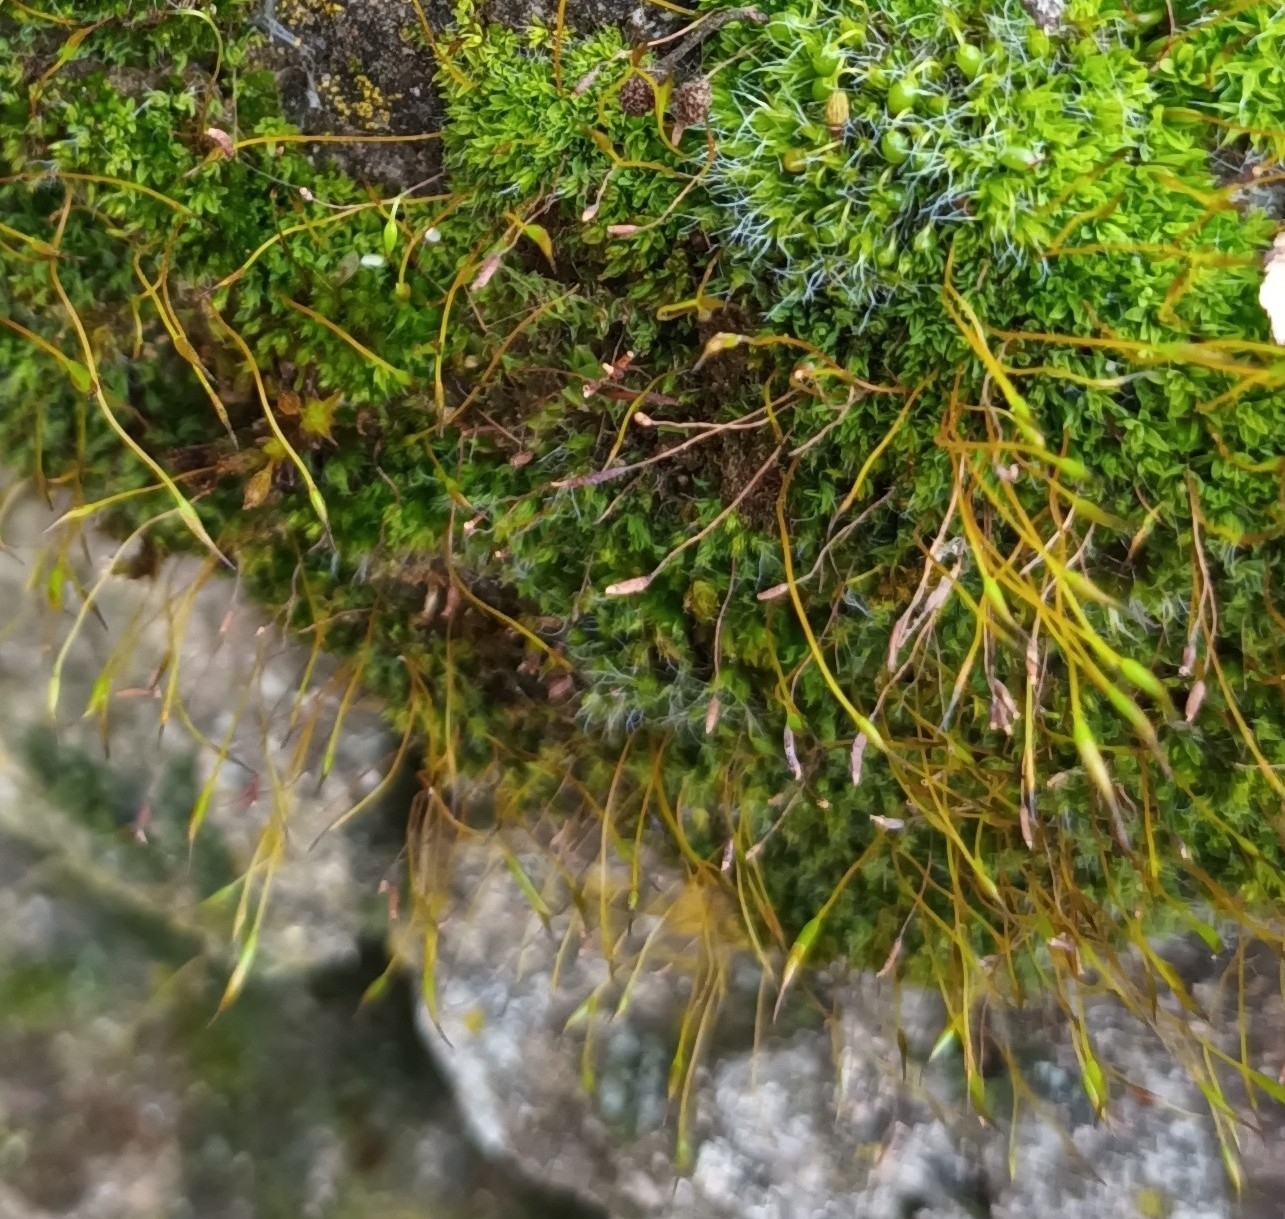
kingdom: Plantae
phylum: Bryophyta
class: Bryopsida
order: Pottiales
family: Pottiaceae
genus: Tortula
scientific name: Tortula muralis
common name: Wall screw-moss
